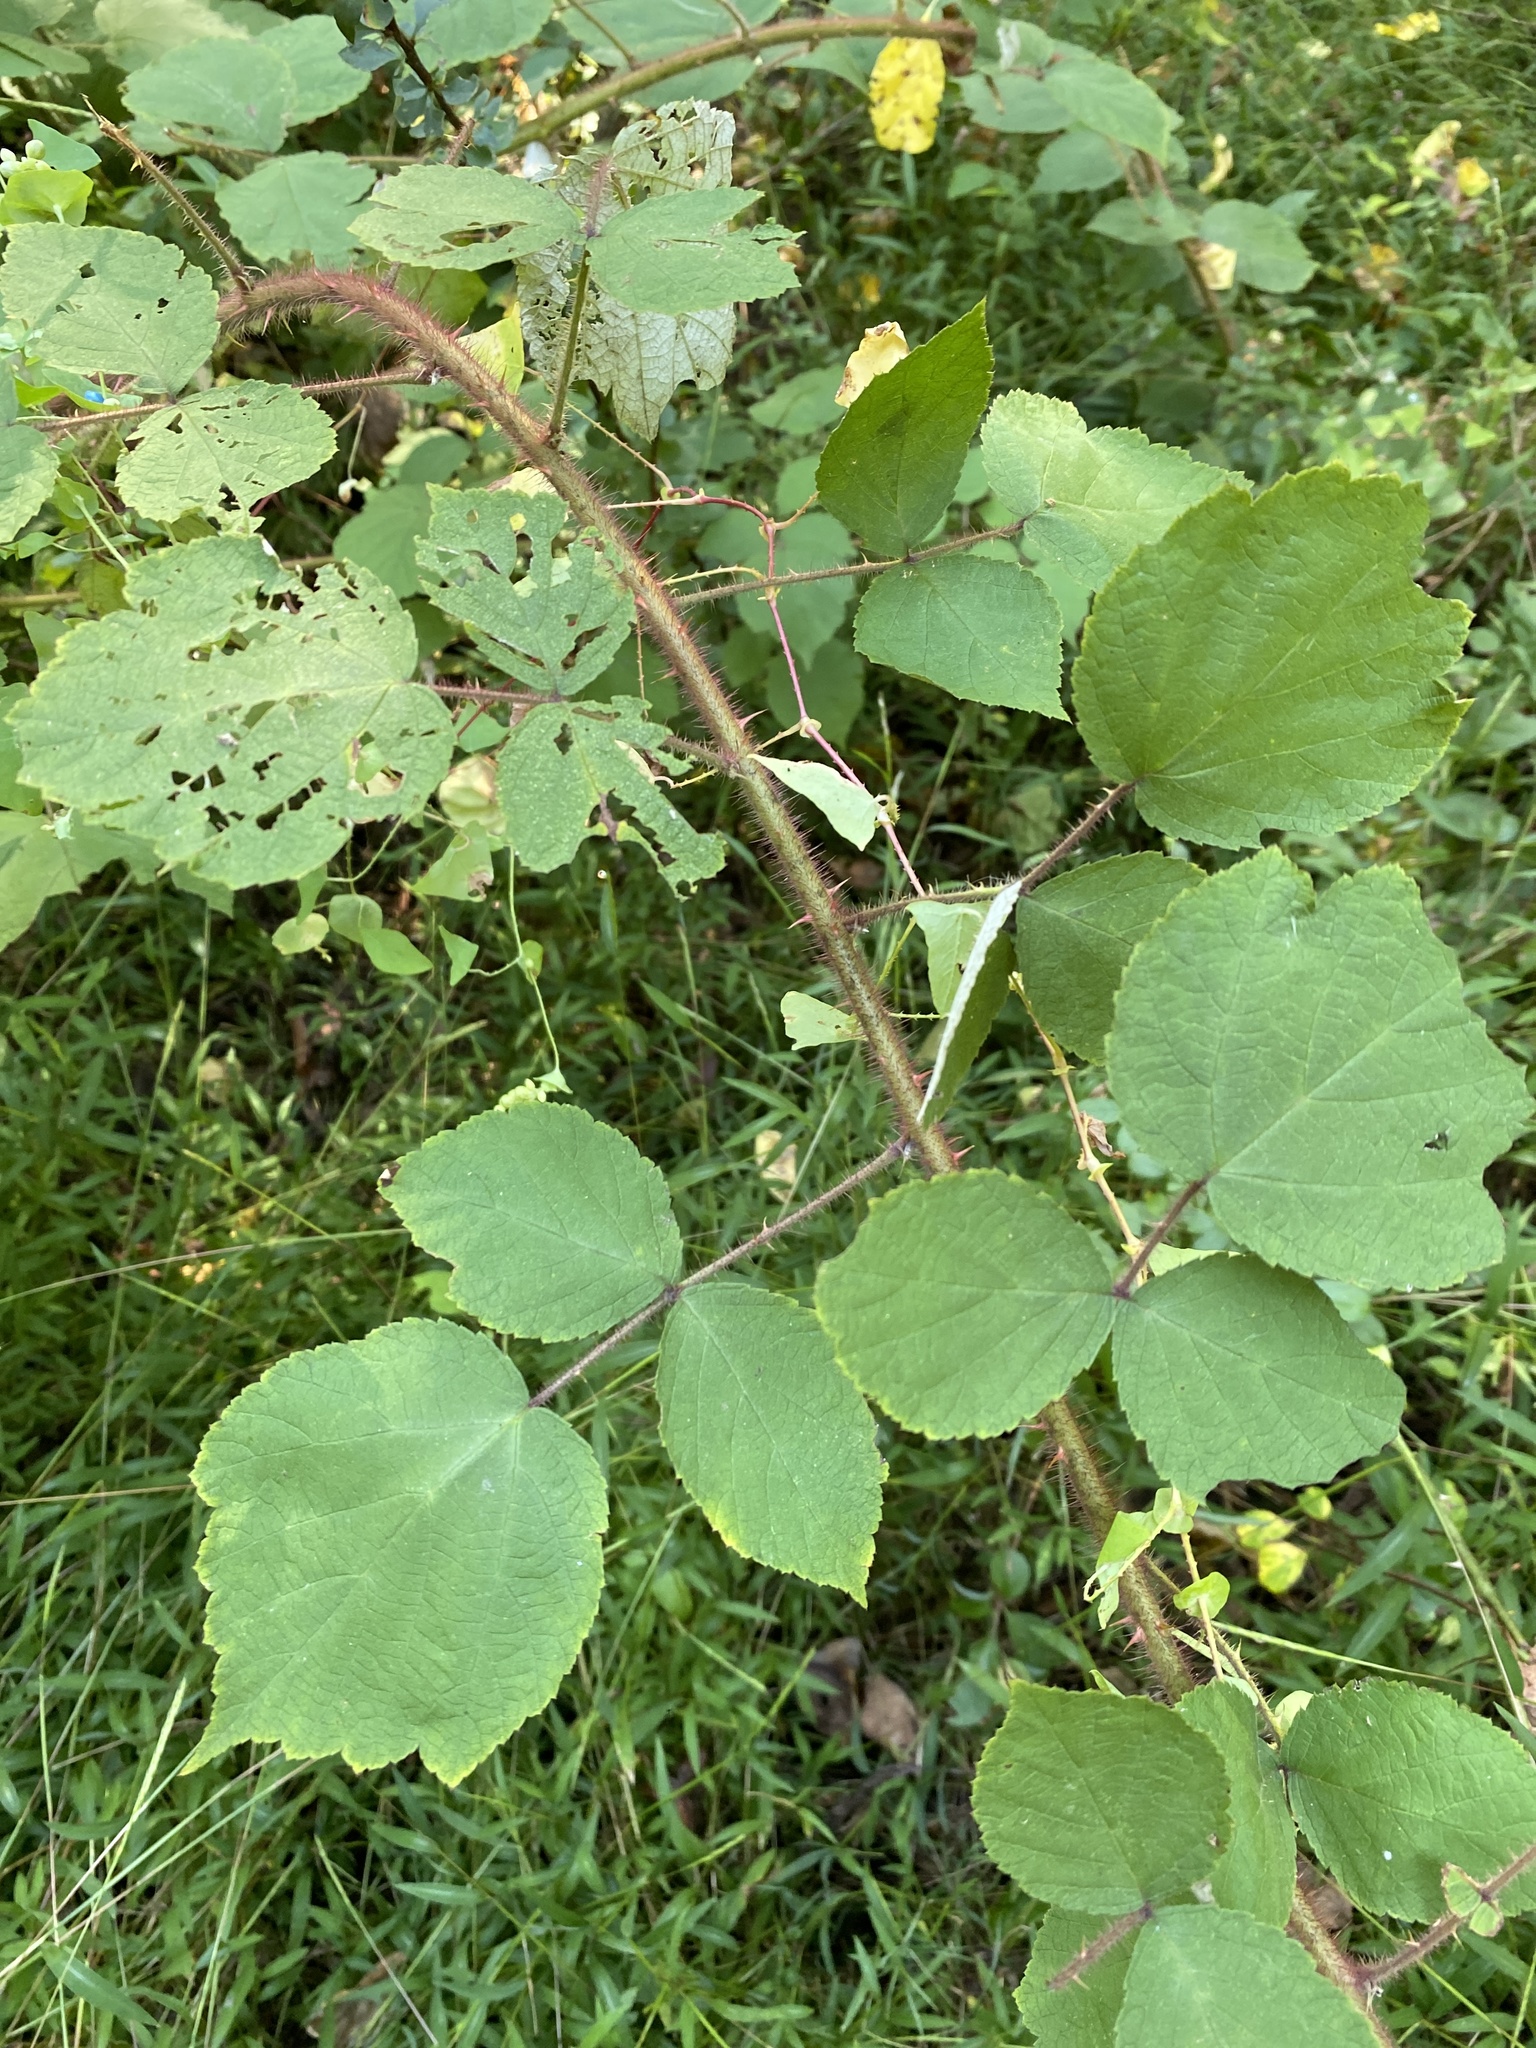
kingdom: Plantae
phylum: Tracheophyta
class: Magnoliopsida
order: Rosales
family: Rosaceae
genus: Rubus
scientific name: Rubus phoenicolasius
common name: Japanese wineberry
